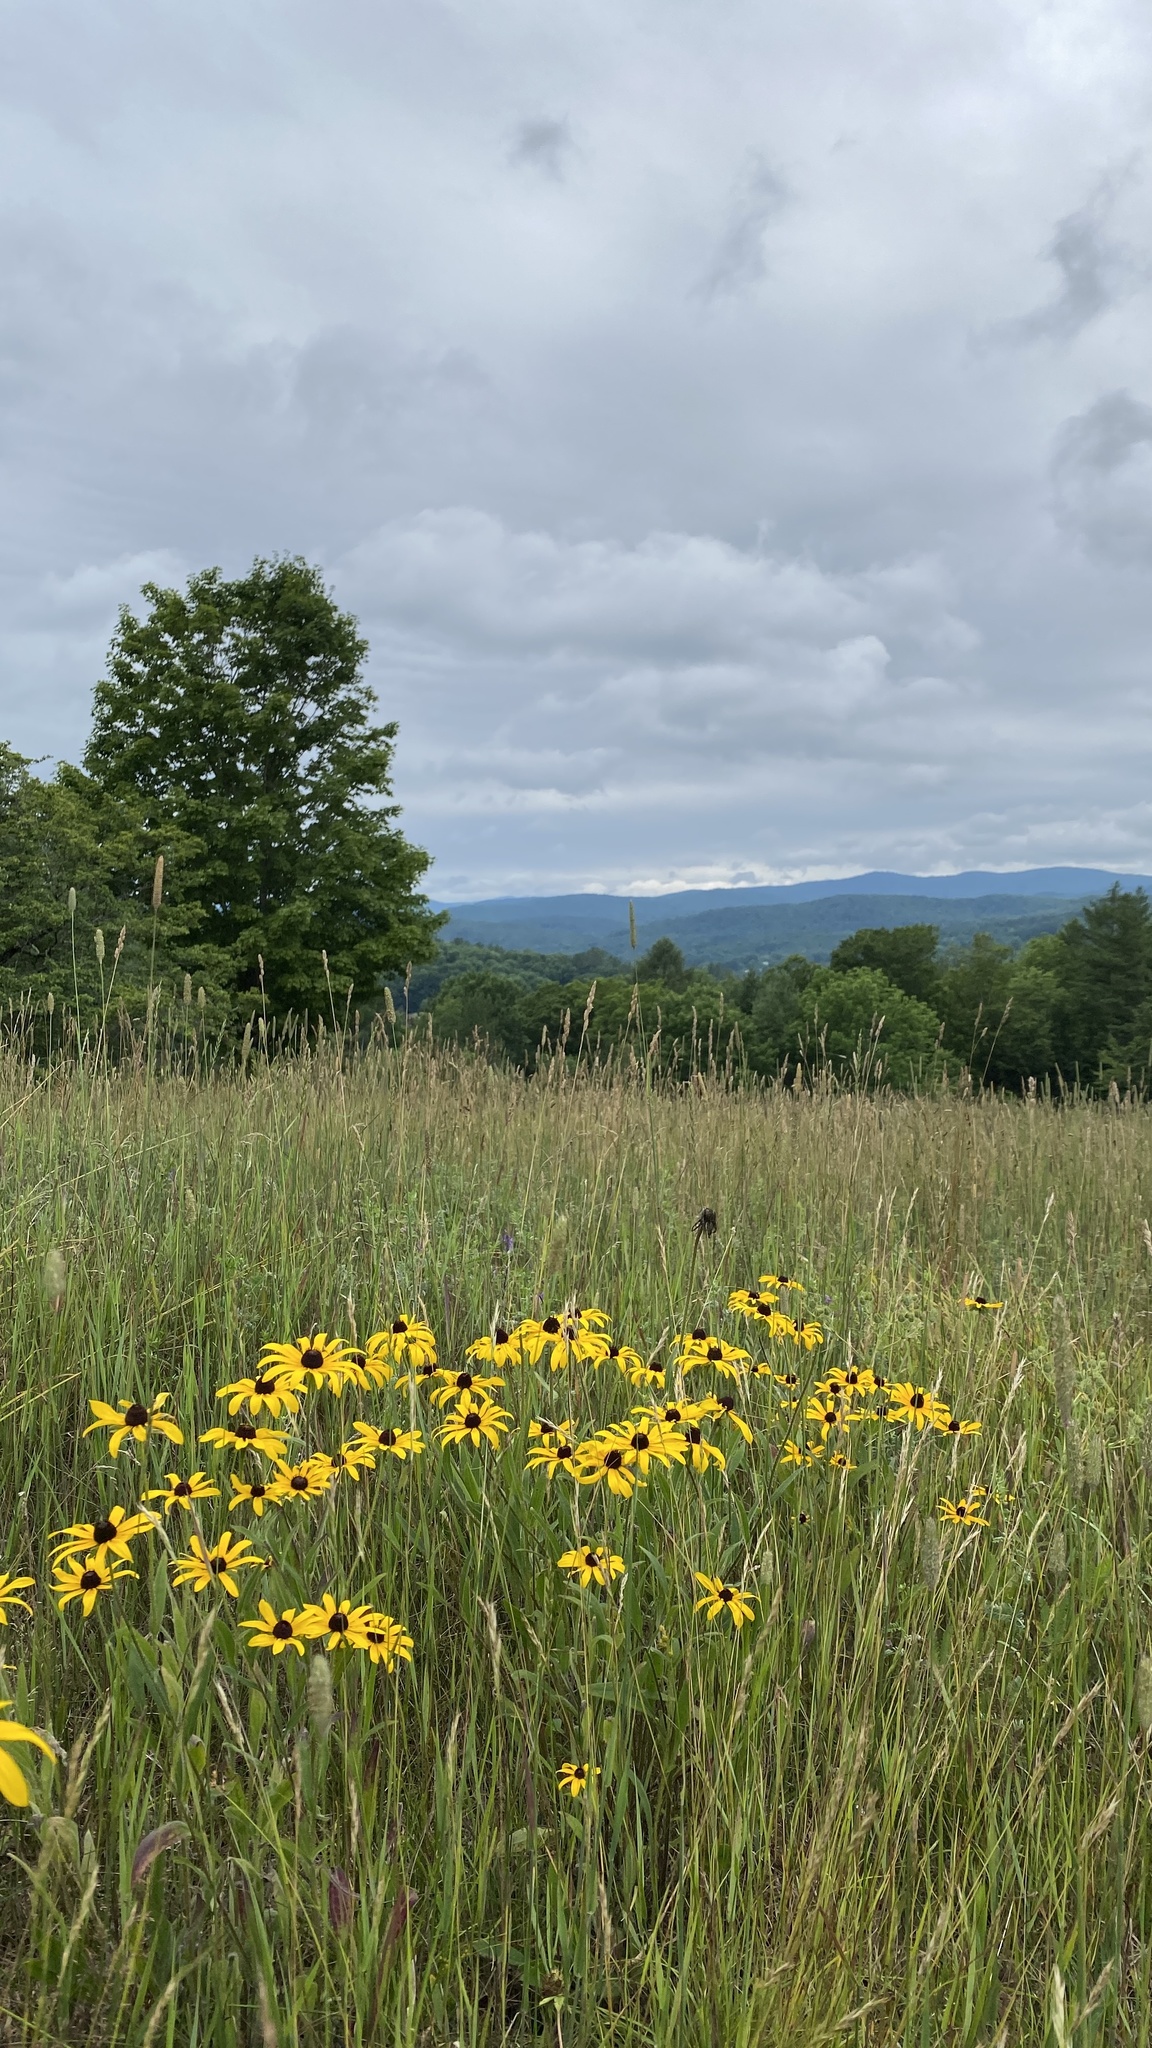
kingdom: Plantae
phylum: Tracheophyta
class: Magnoliopsida
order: Asterales
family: Asteraceae
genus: Rudbeckia
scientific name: Rudbeckia hirta
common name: Black-eyed-susan
